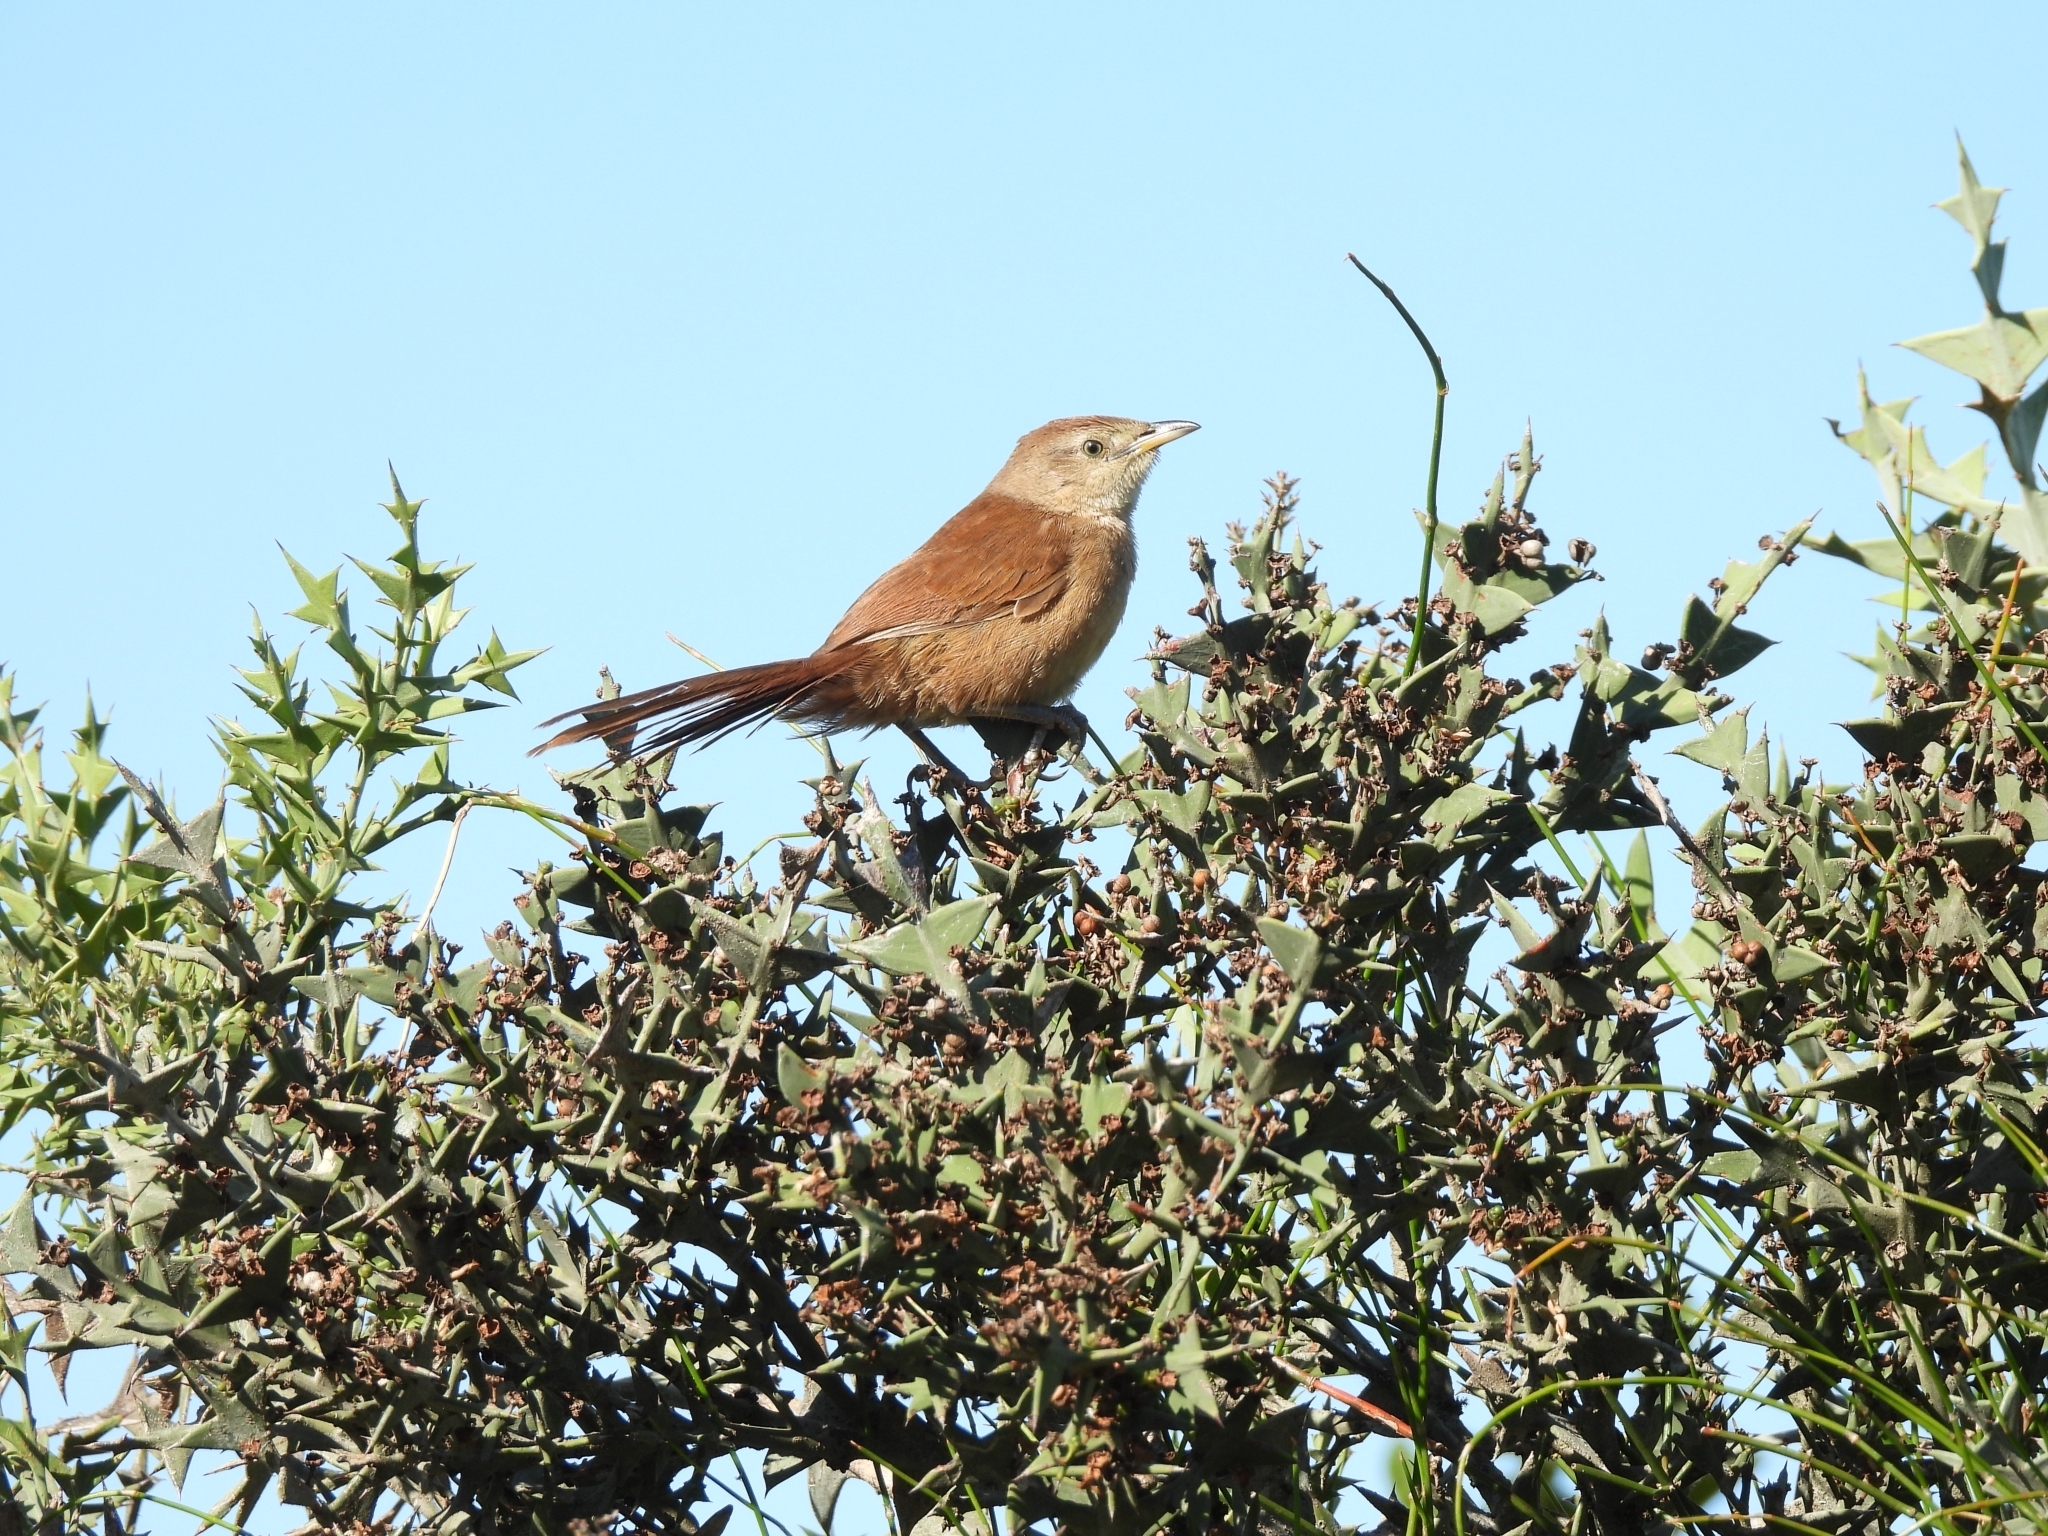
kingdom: Animalia
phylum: Chordata
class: Aves
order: Passeriformes
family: Furnariidae
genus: Phacellodomus
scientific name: Phacellodomus striaticollis
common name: Freckle-breasted thornbird
